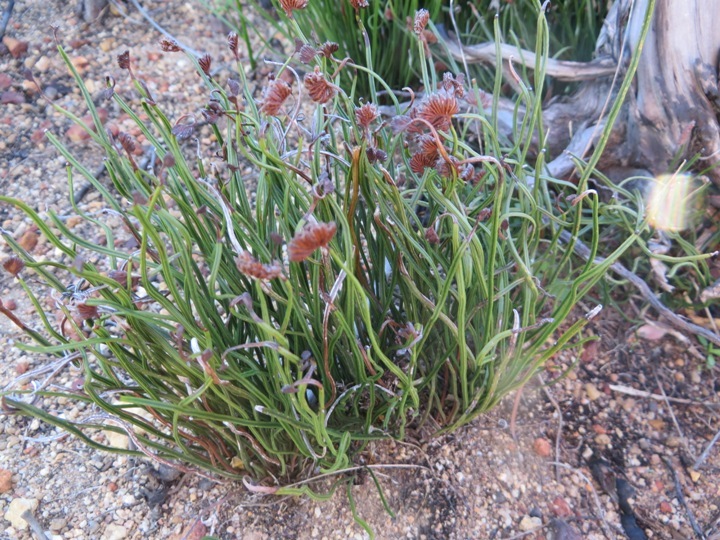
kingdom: Plantae
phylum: Tracheophyta
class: Polypodiopsida
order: Schizaeales
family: Schizaeaceae
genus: Schizaea
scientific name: Schizaea pectinata
